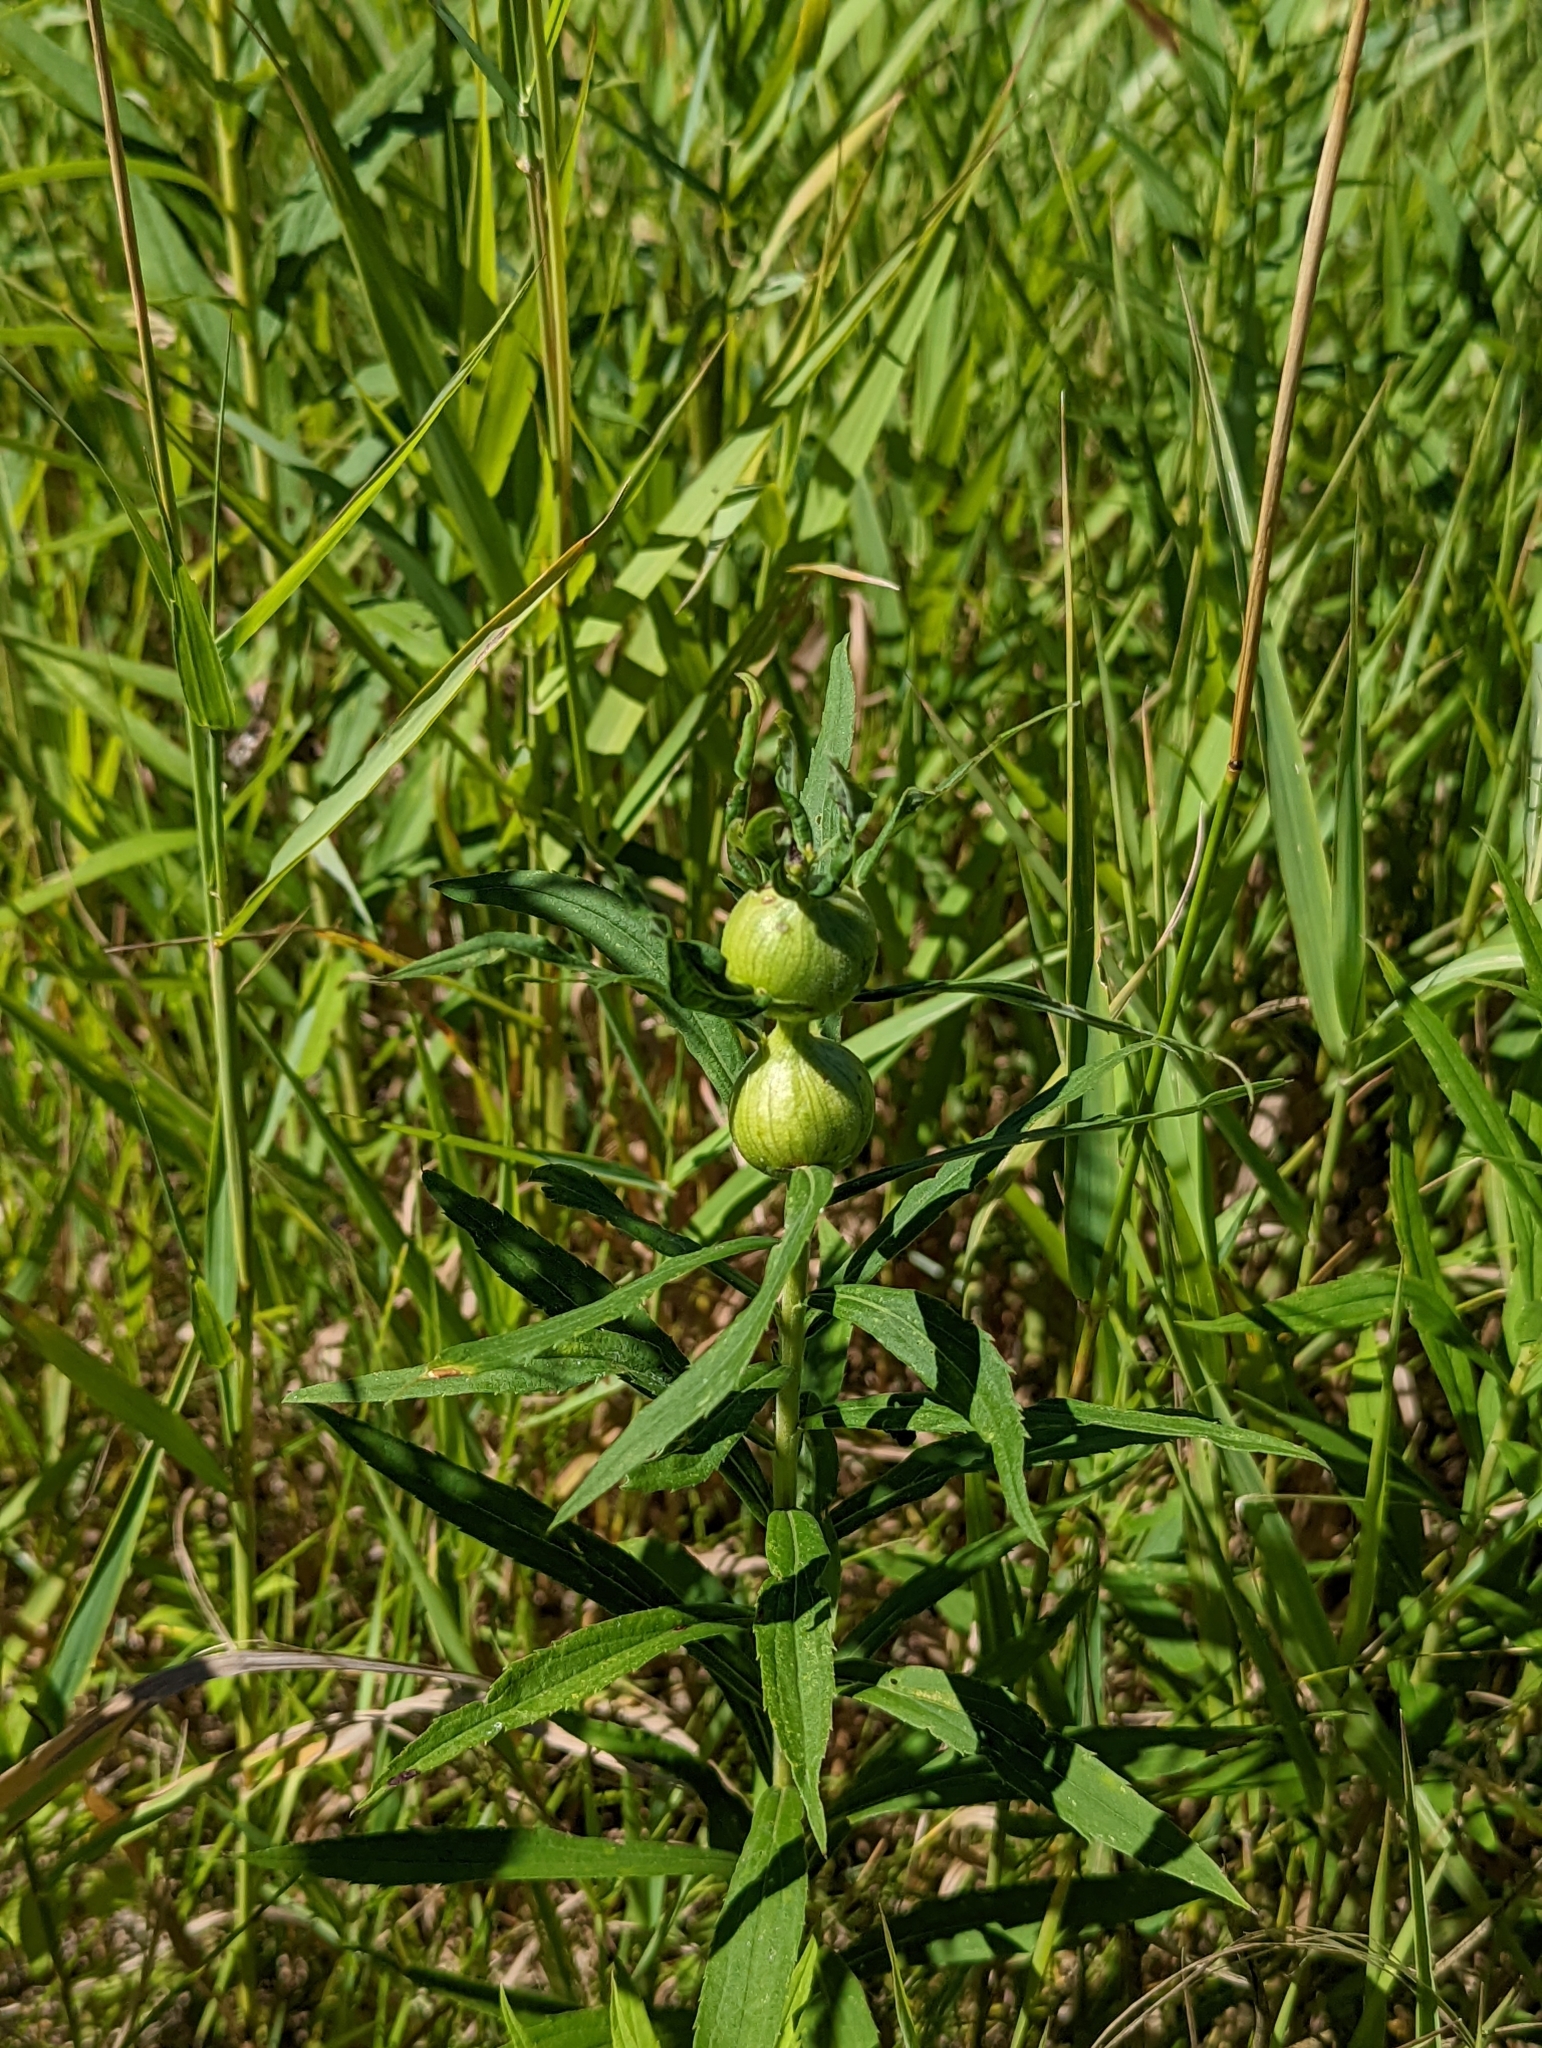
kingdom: Animalia
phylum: Arthropoda
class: Insecta
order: Diptera
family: Tephritidae
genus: Eurosta
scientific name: Eurosta solidaginis
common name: Goldenrod gall fly
